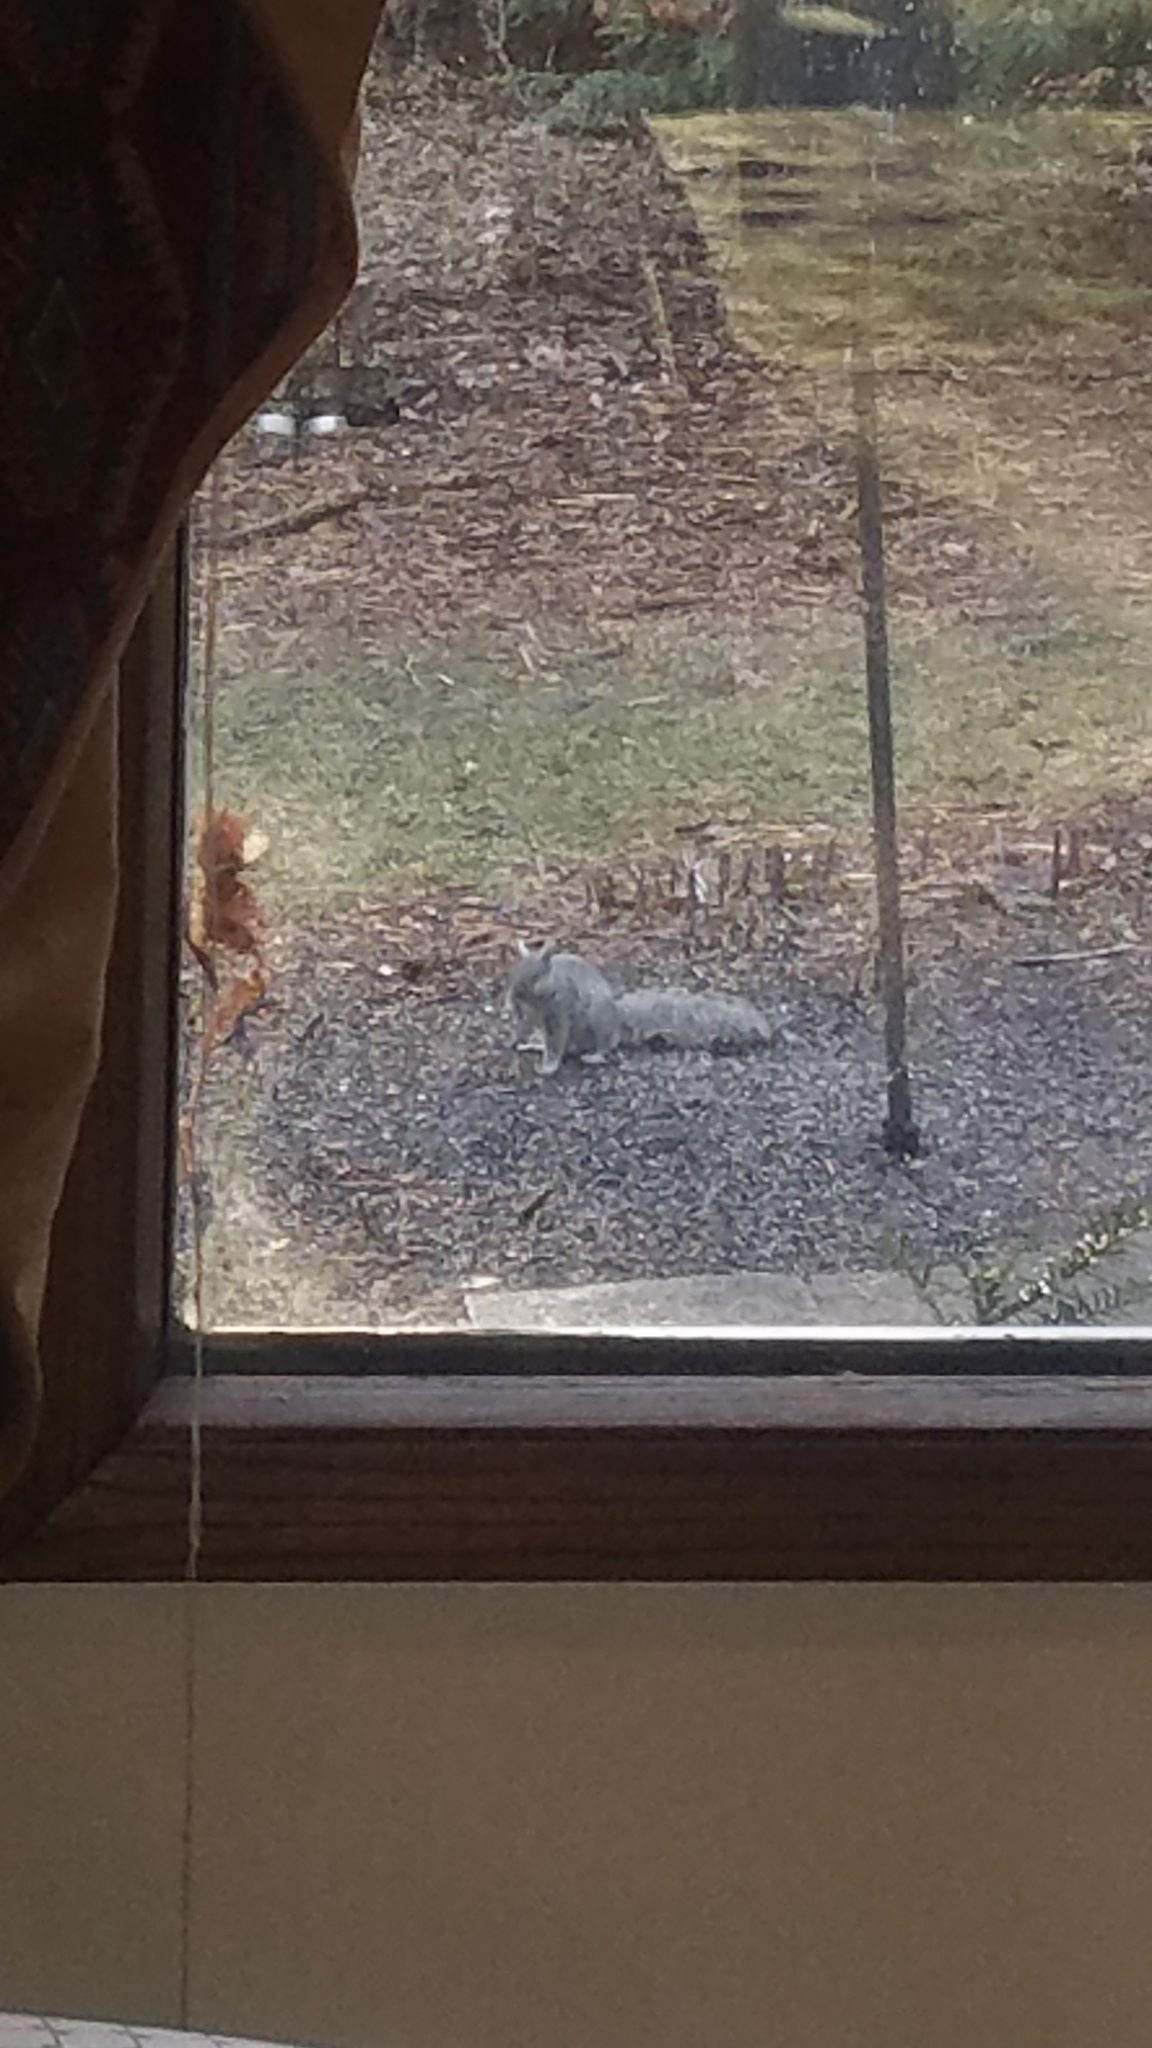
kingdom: Animalia
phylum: Chordata
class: Mammalia
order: Rodentia
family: Sciuridae
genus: Sciurus
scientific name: Sciurus carolinensis
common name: Eastern gray squirrel
